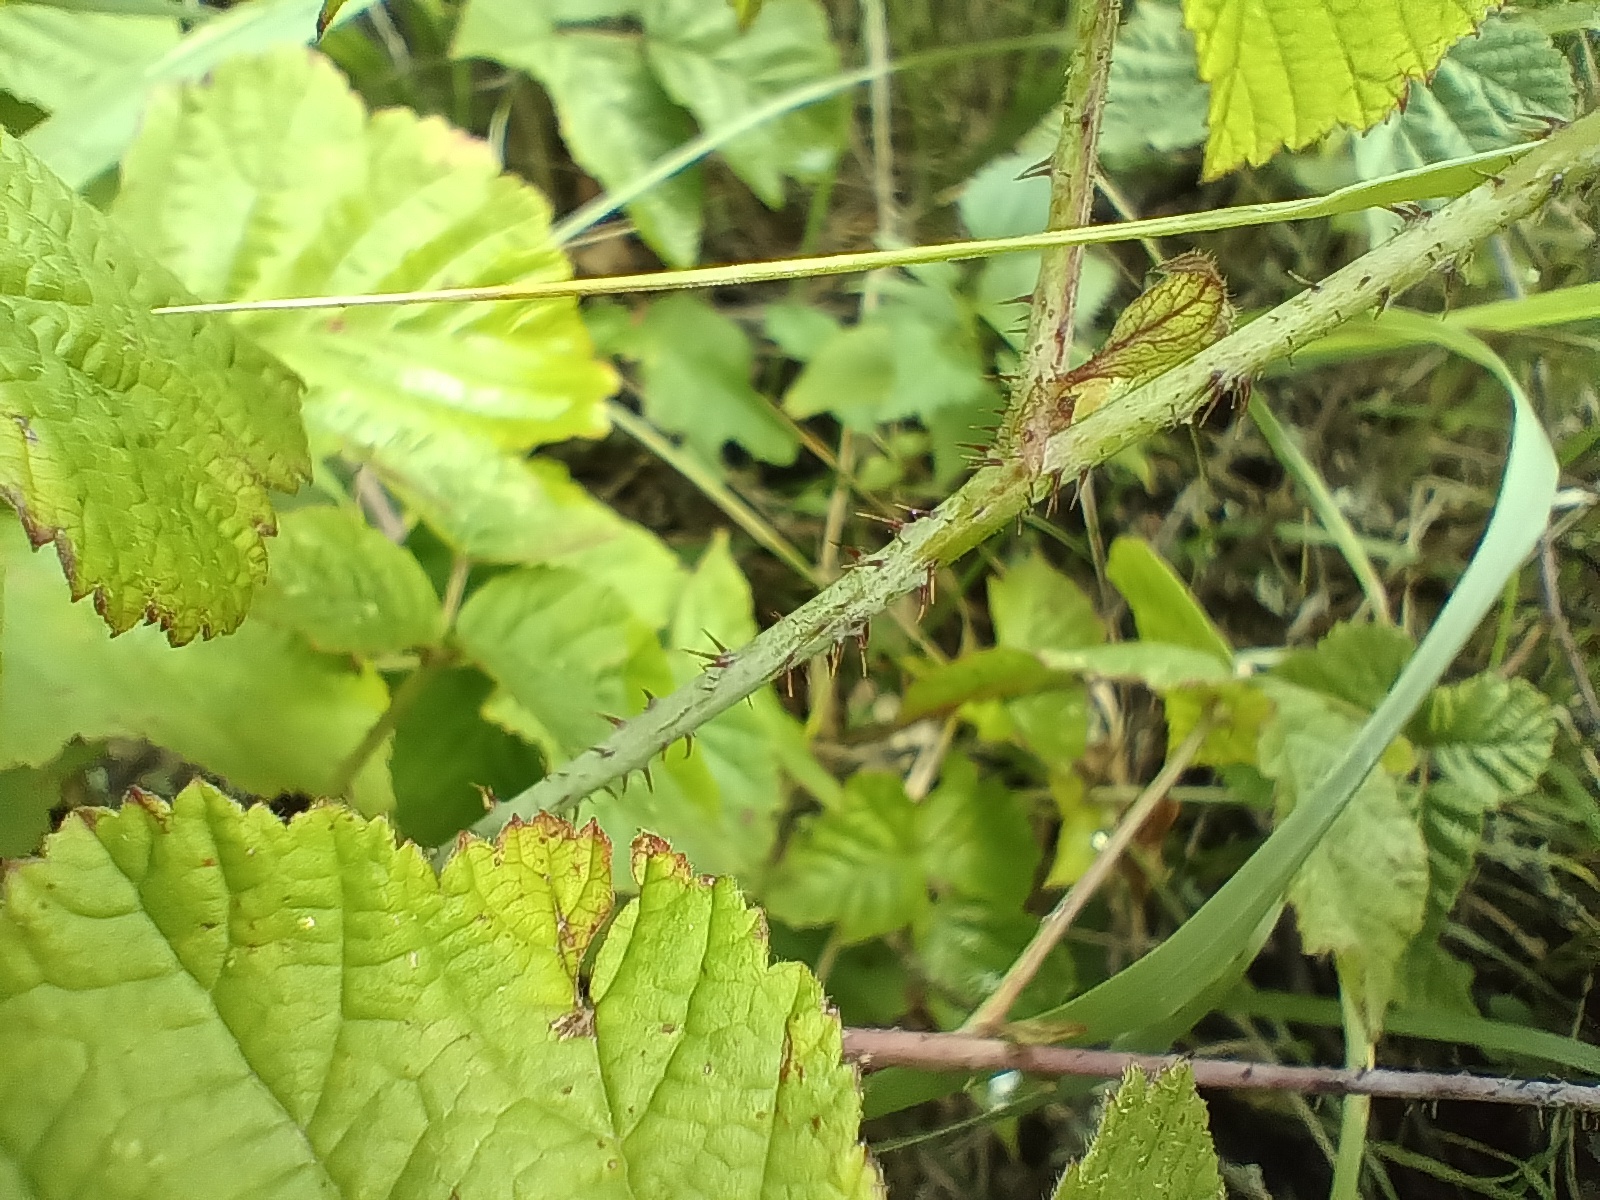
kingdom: Plantae
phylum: Tracheophyta
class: Magnoliopsida
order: Rosales
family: Rosaceae
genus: Rubus
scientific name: Rubus caesius
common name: Dewberry
